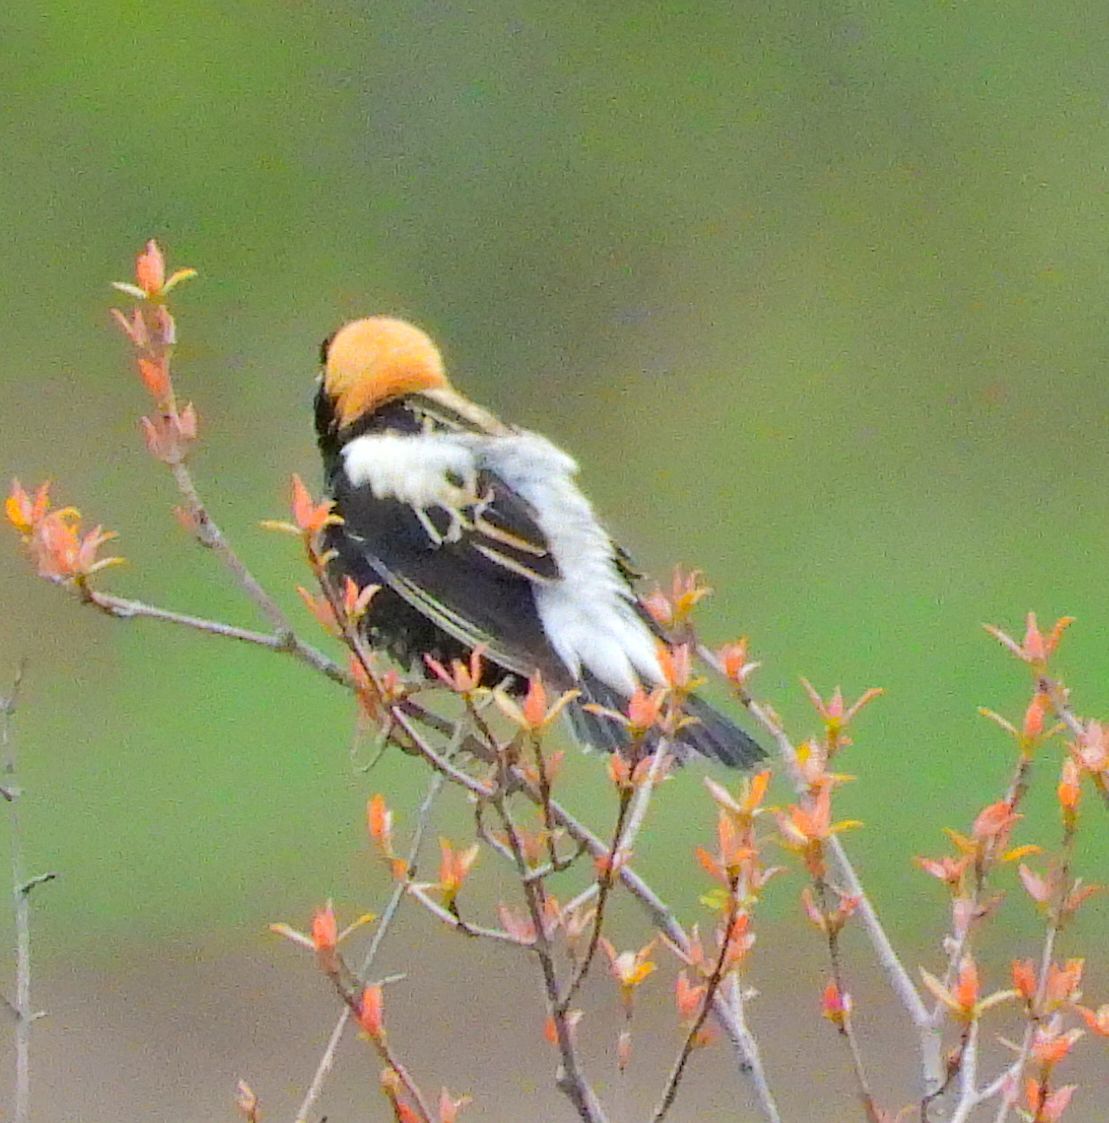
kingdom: Animalia
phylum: Chordata
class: Aves
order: Passeriformes
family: Icteridae
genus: Dolichonyx
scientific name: Dolichonyx oryzivorus
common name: Bobolink
